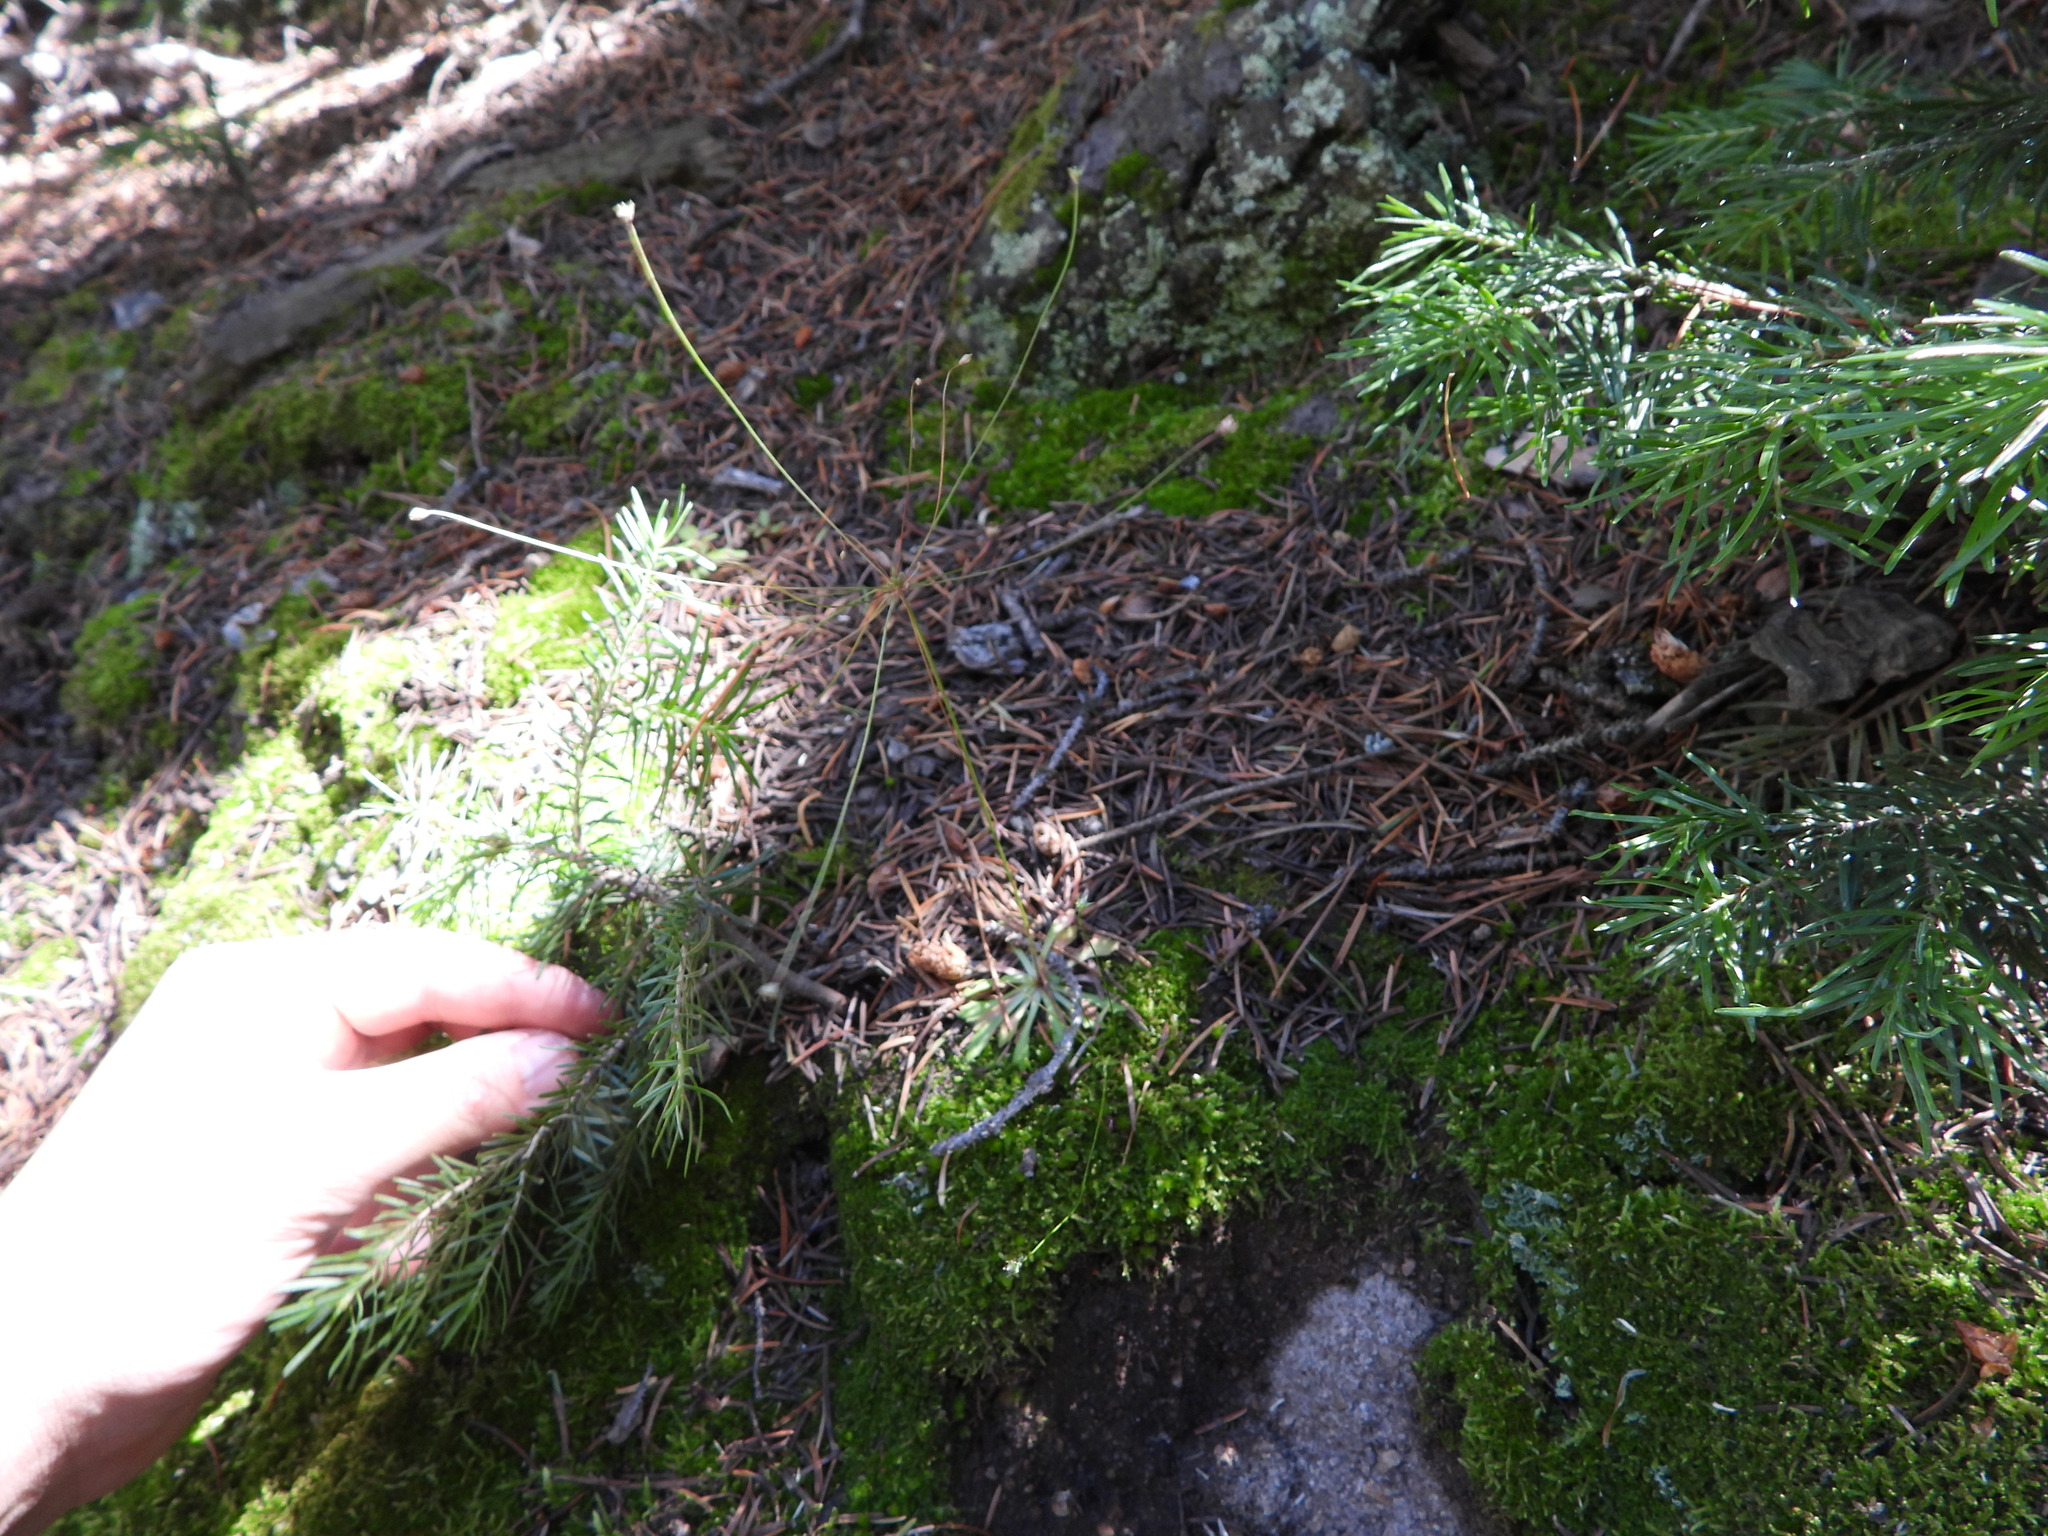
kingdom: Plantae
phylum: Tracheophyta
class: Magnoliopsida
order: Ericales
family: Primulaceae
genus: Androsace
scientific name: Androsace septentrionalis
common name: Hairy northern fairy-candelabra
